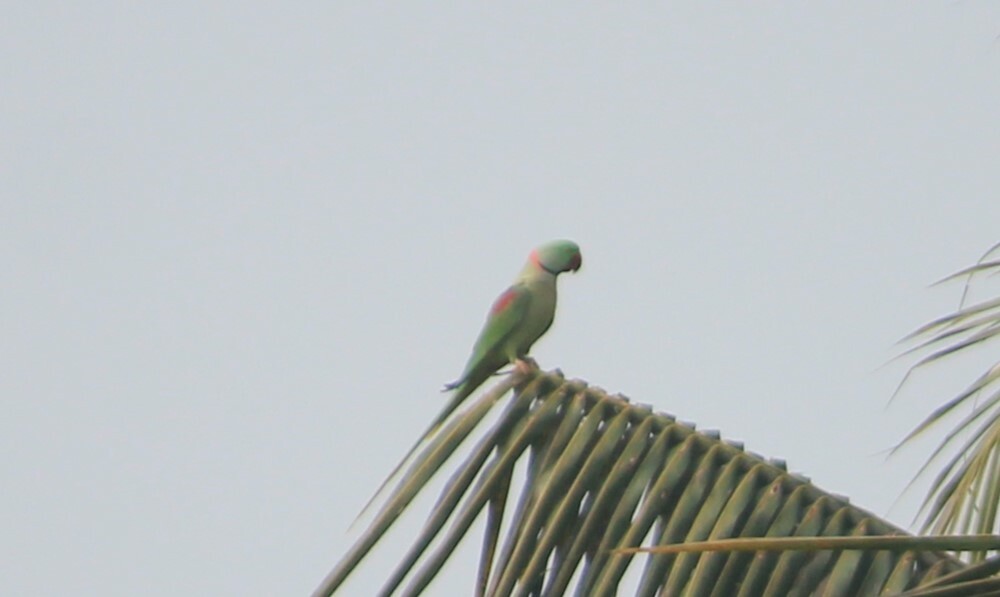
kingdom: Animalia
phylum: Chordata
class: Aves
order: Psittaciformes
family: Psittacidae
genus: Psittacula
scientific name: Psittacula eupatria
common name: Alexandrine parakeet
